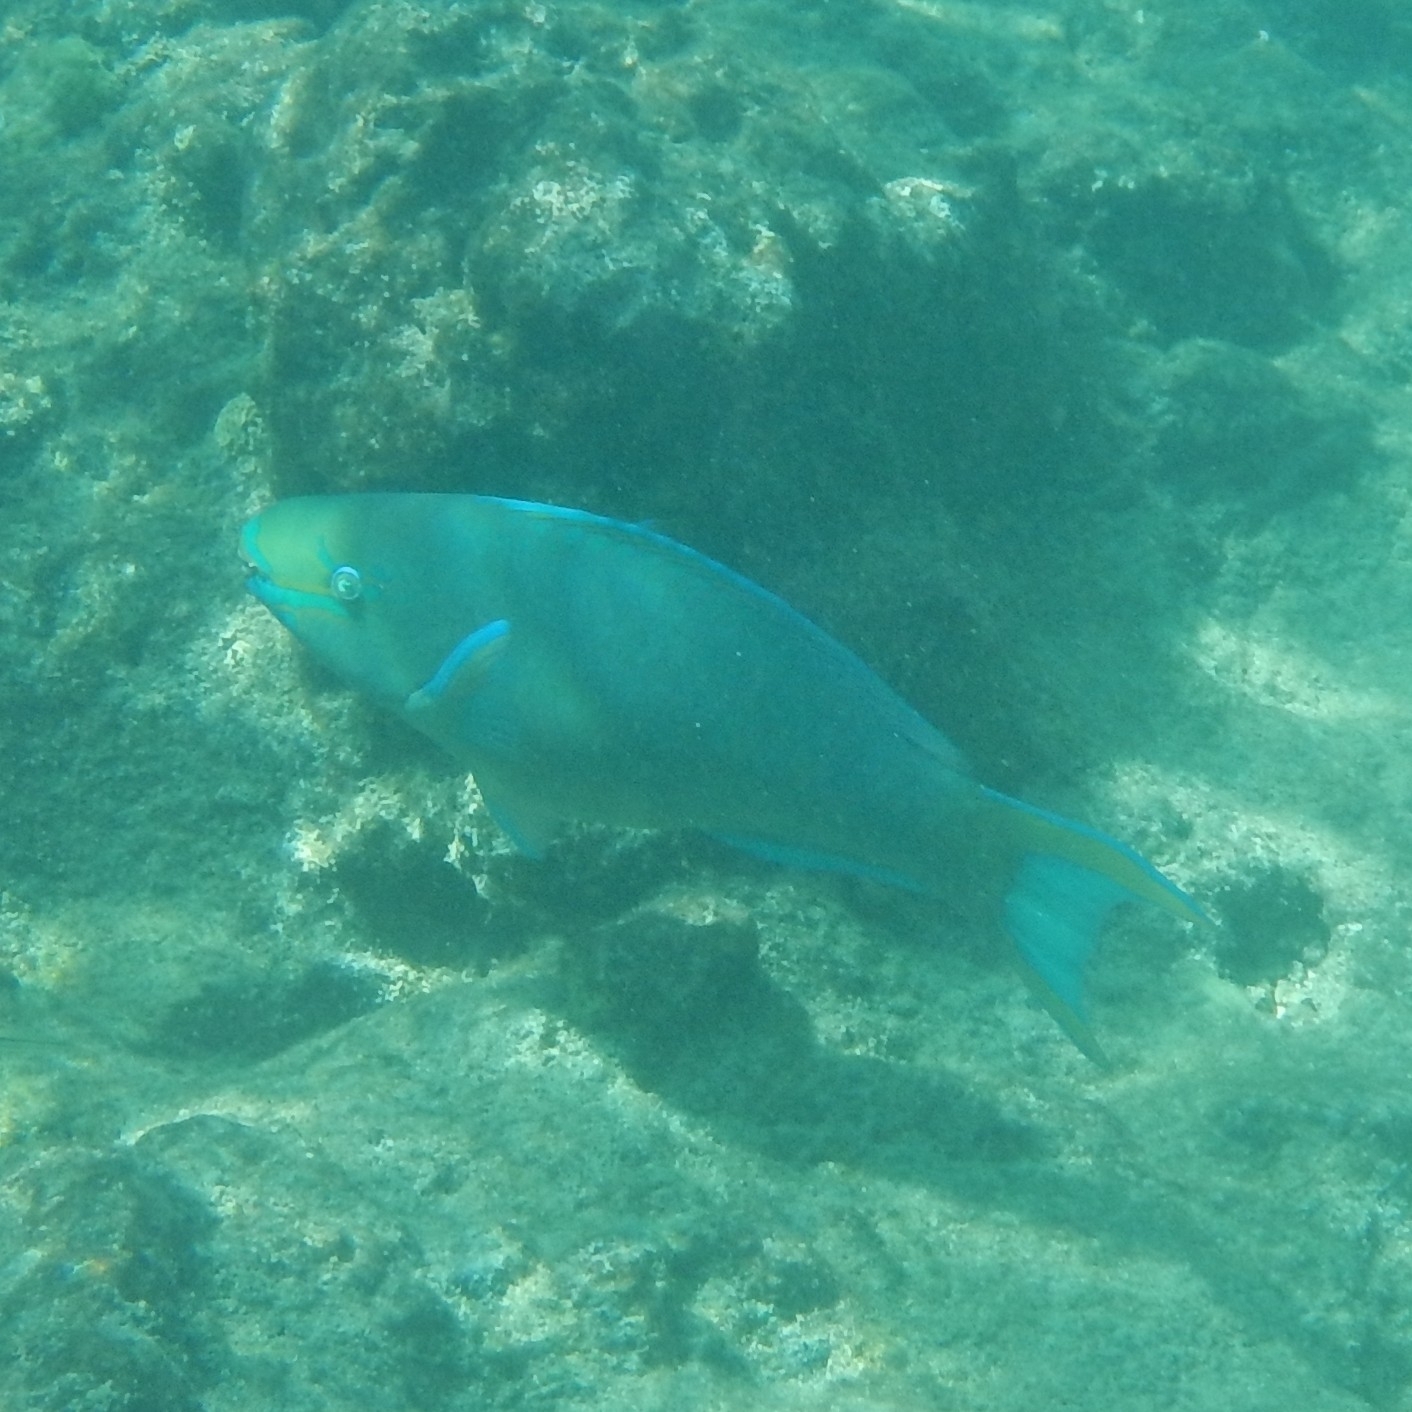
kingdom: Animalia
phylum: Chordata
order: Perciformes
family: Scaridae
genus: Scarus
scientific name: Scarus vetula
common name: Queen parrotfish
